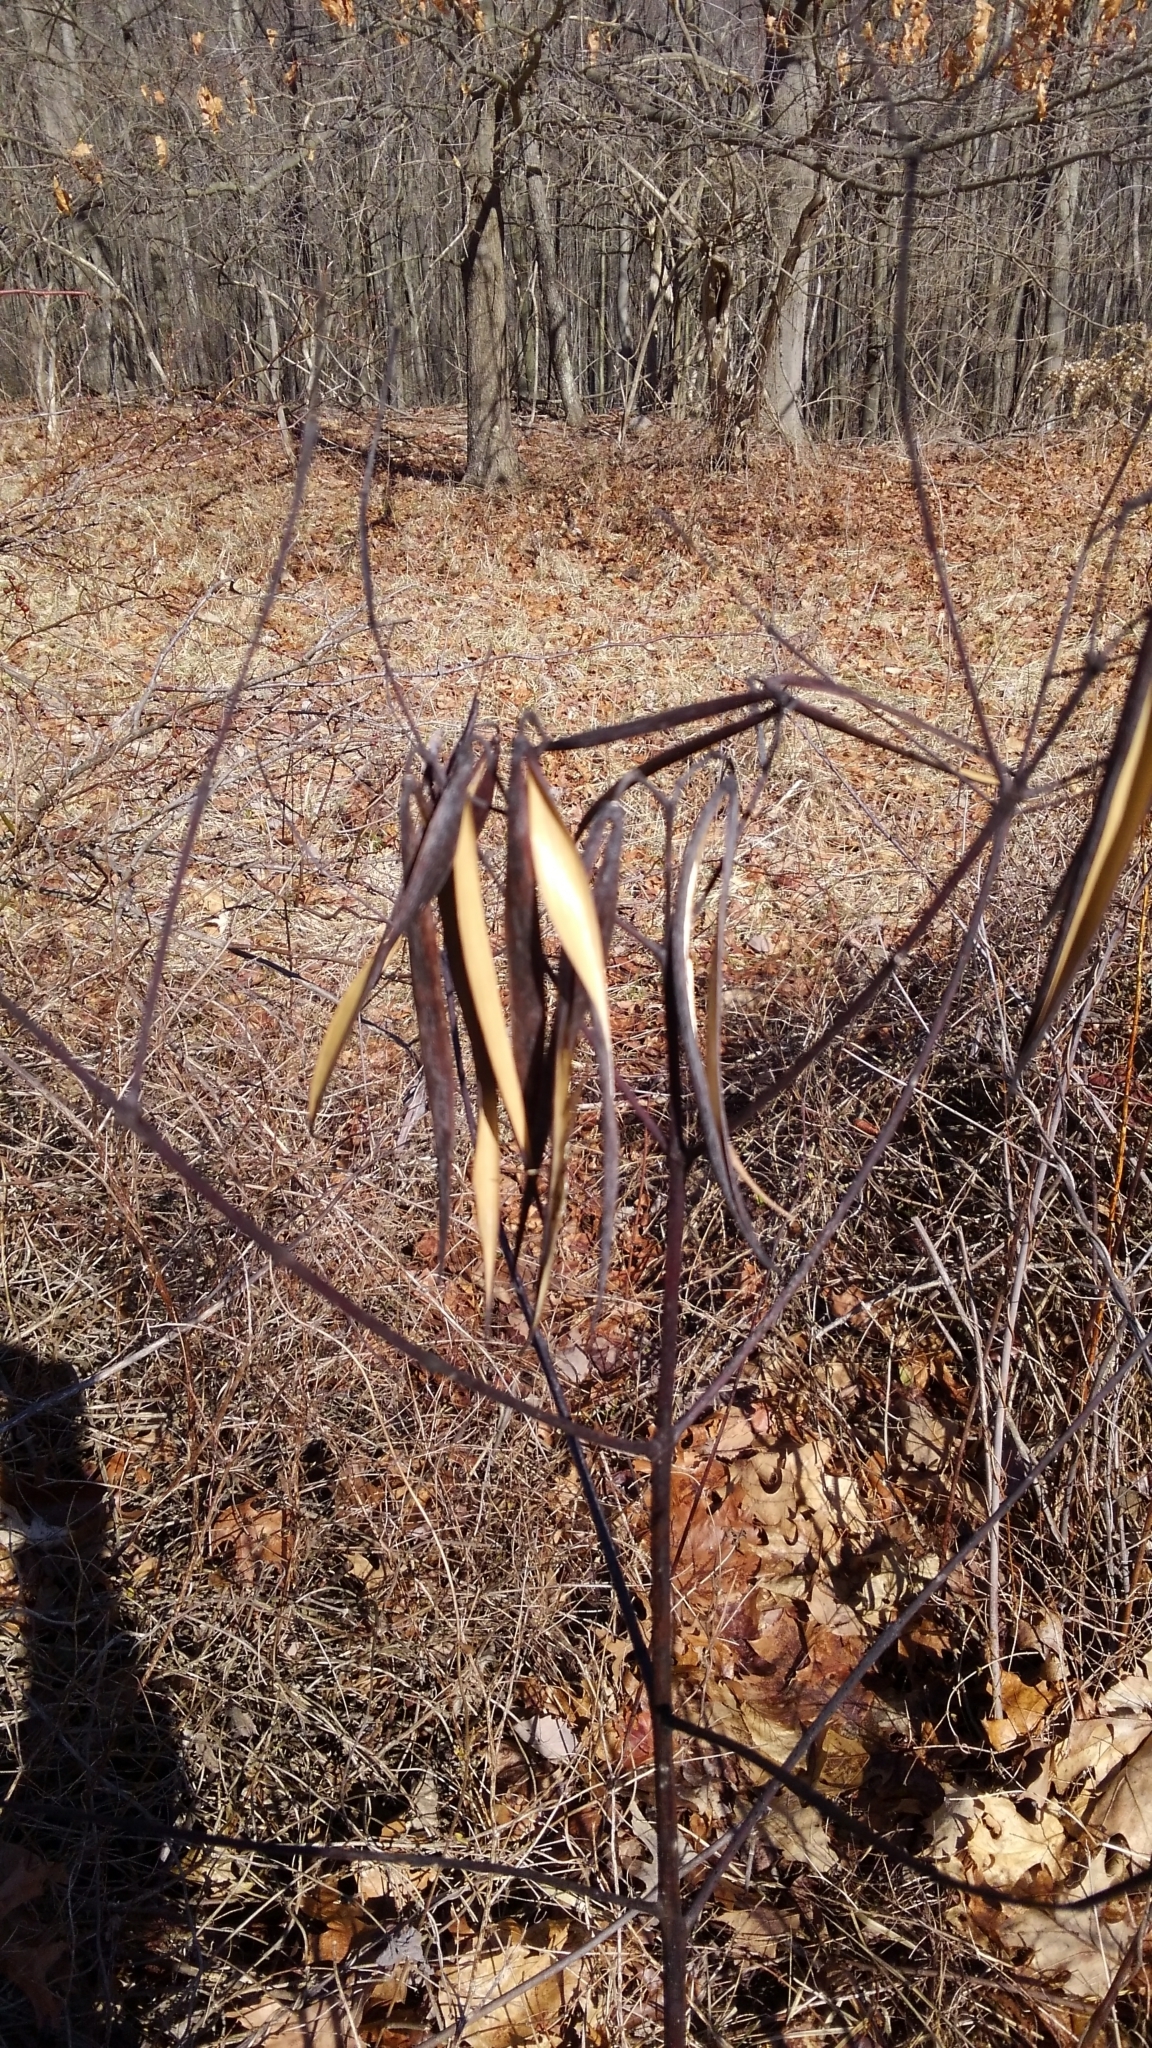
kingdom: Plantae
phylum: Tracheophyta
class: Magnoliopsida
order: Gentianales
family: Apocynaceae
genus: Apocynum
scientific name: Apocynum cannabinum
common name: Hemp dogbane
